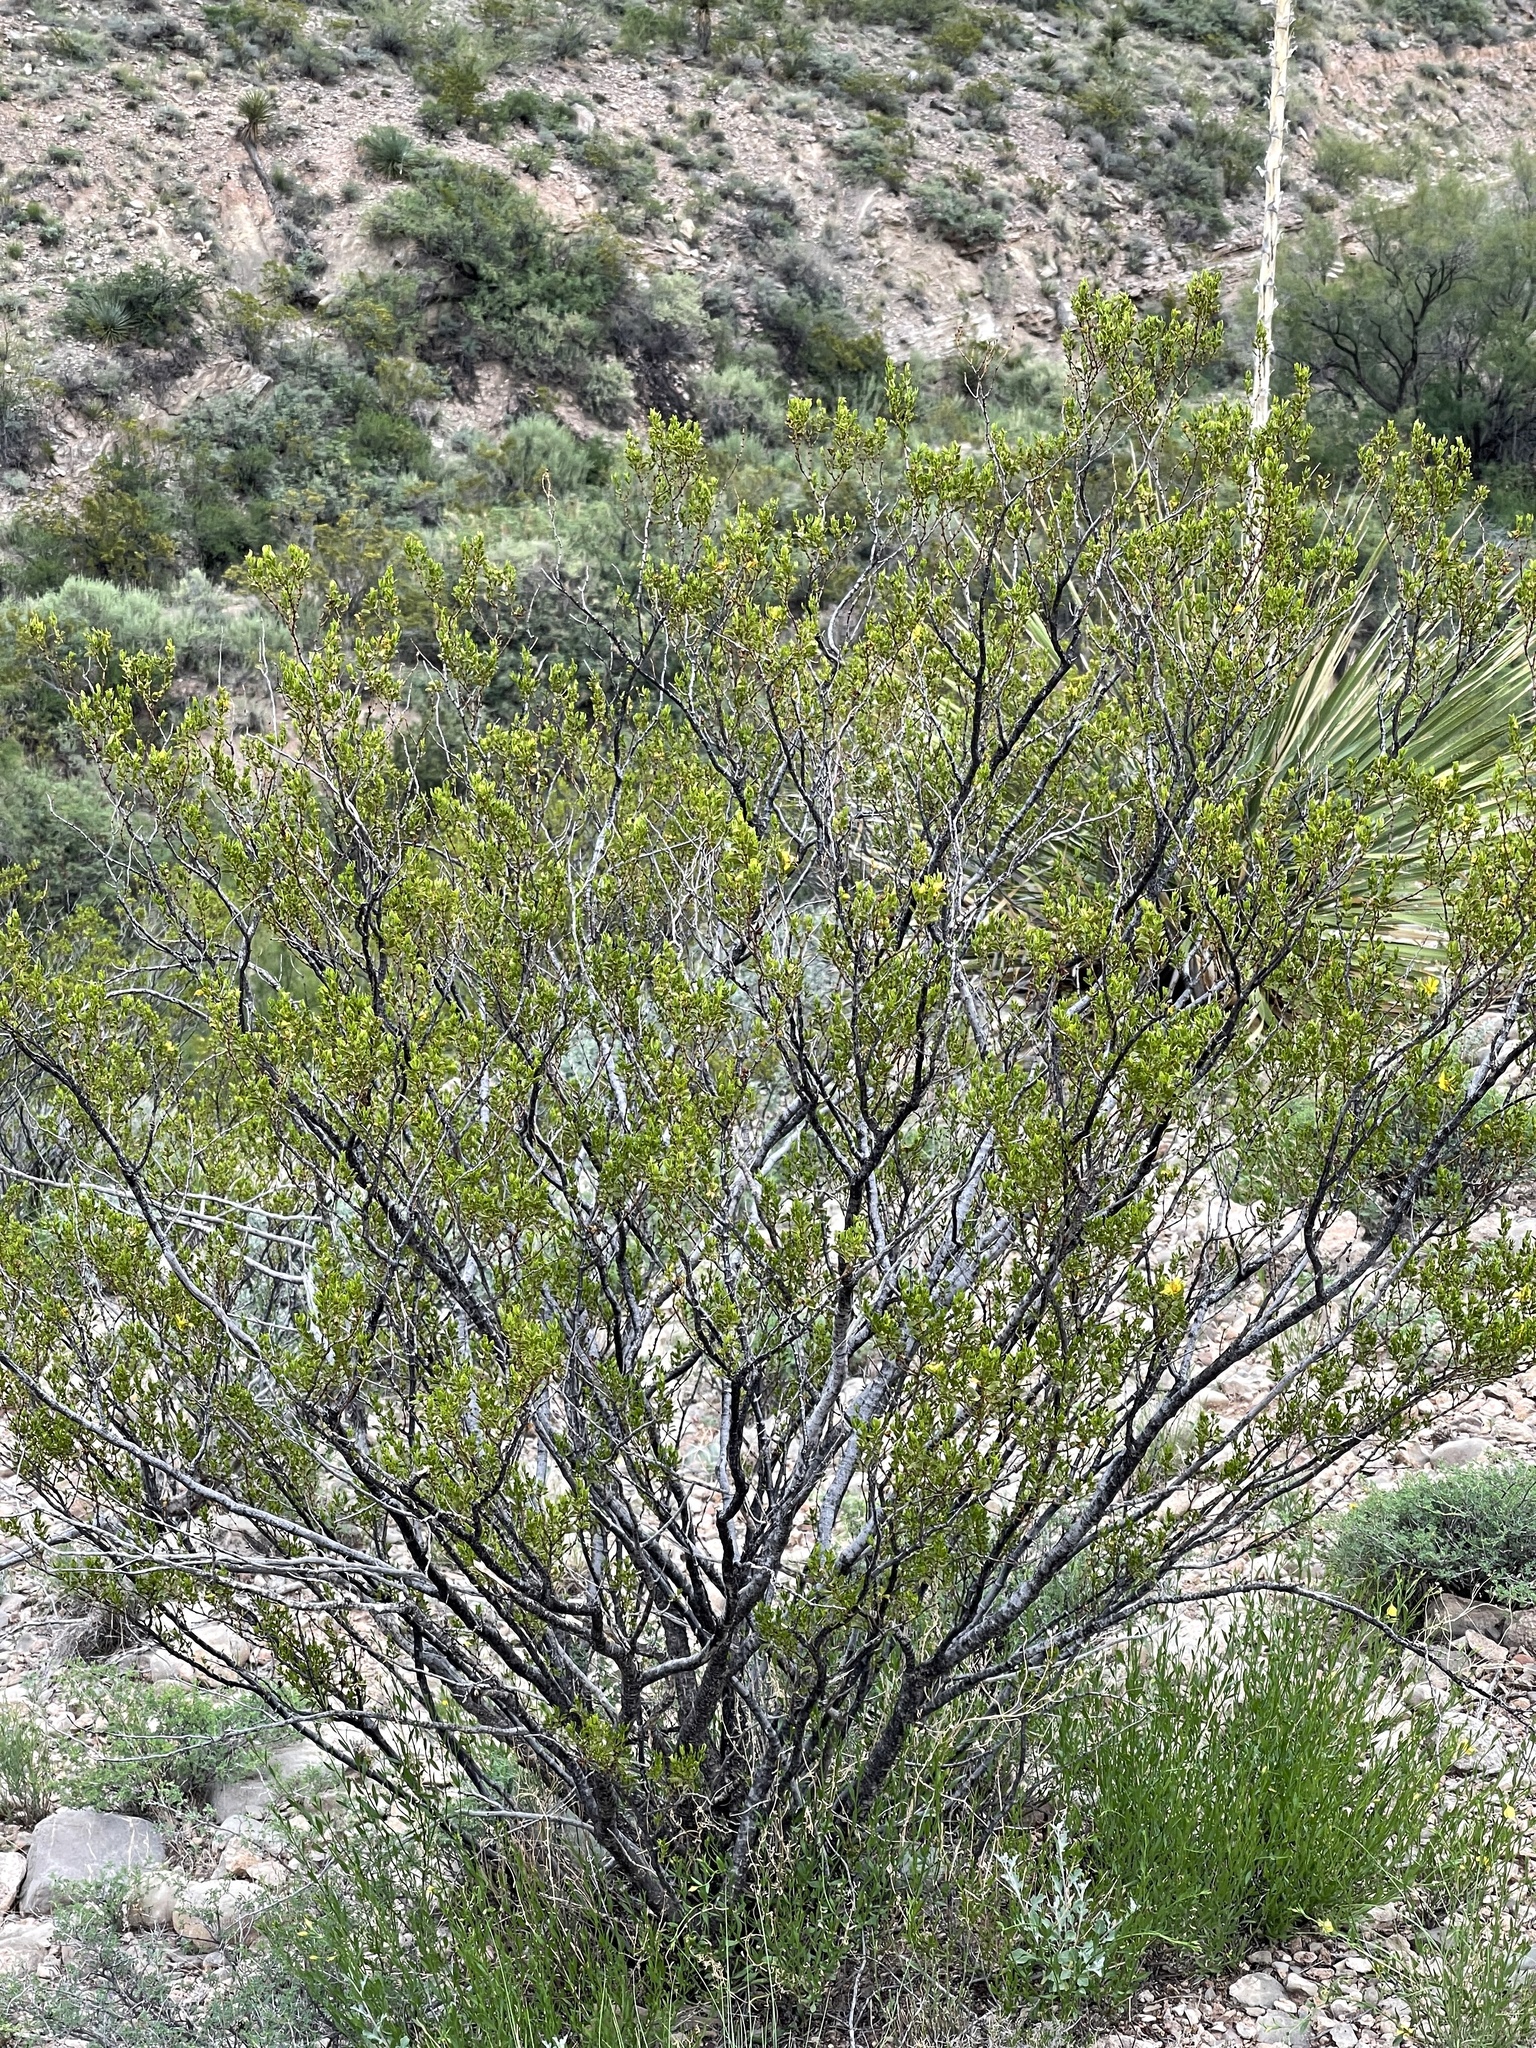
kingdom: Plantae
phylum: Tracheophyta
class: Magnoliopsida
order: Zygophyllales
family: Zygophyllaceae
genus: Larrea
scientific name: Larrea tridentata
